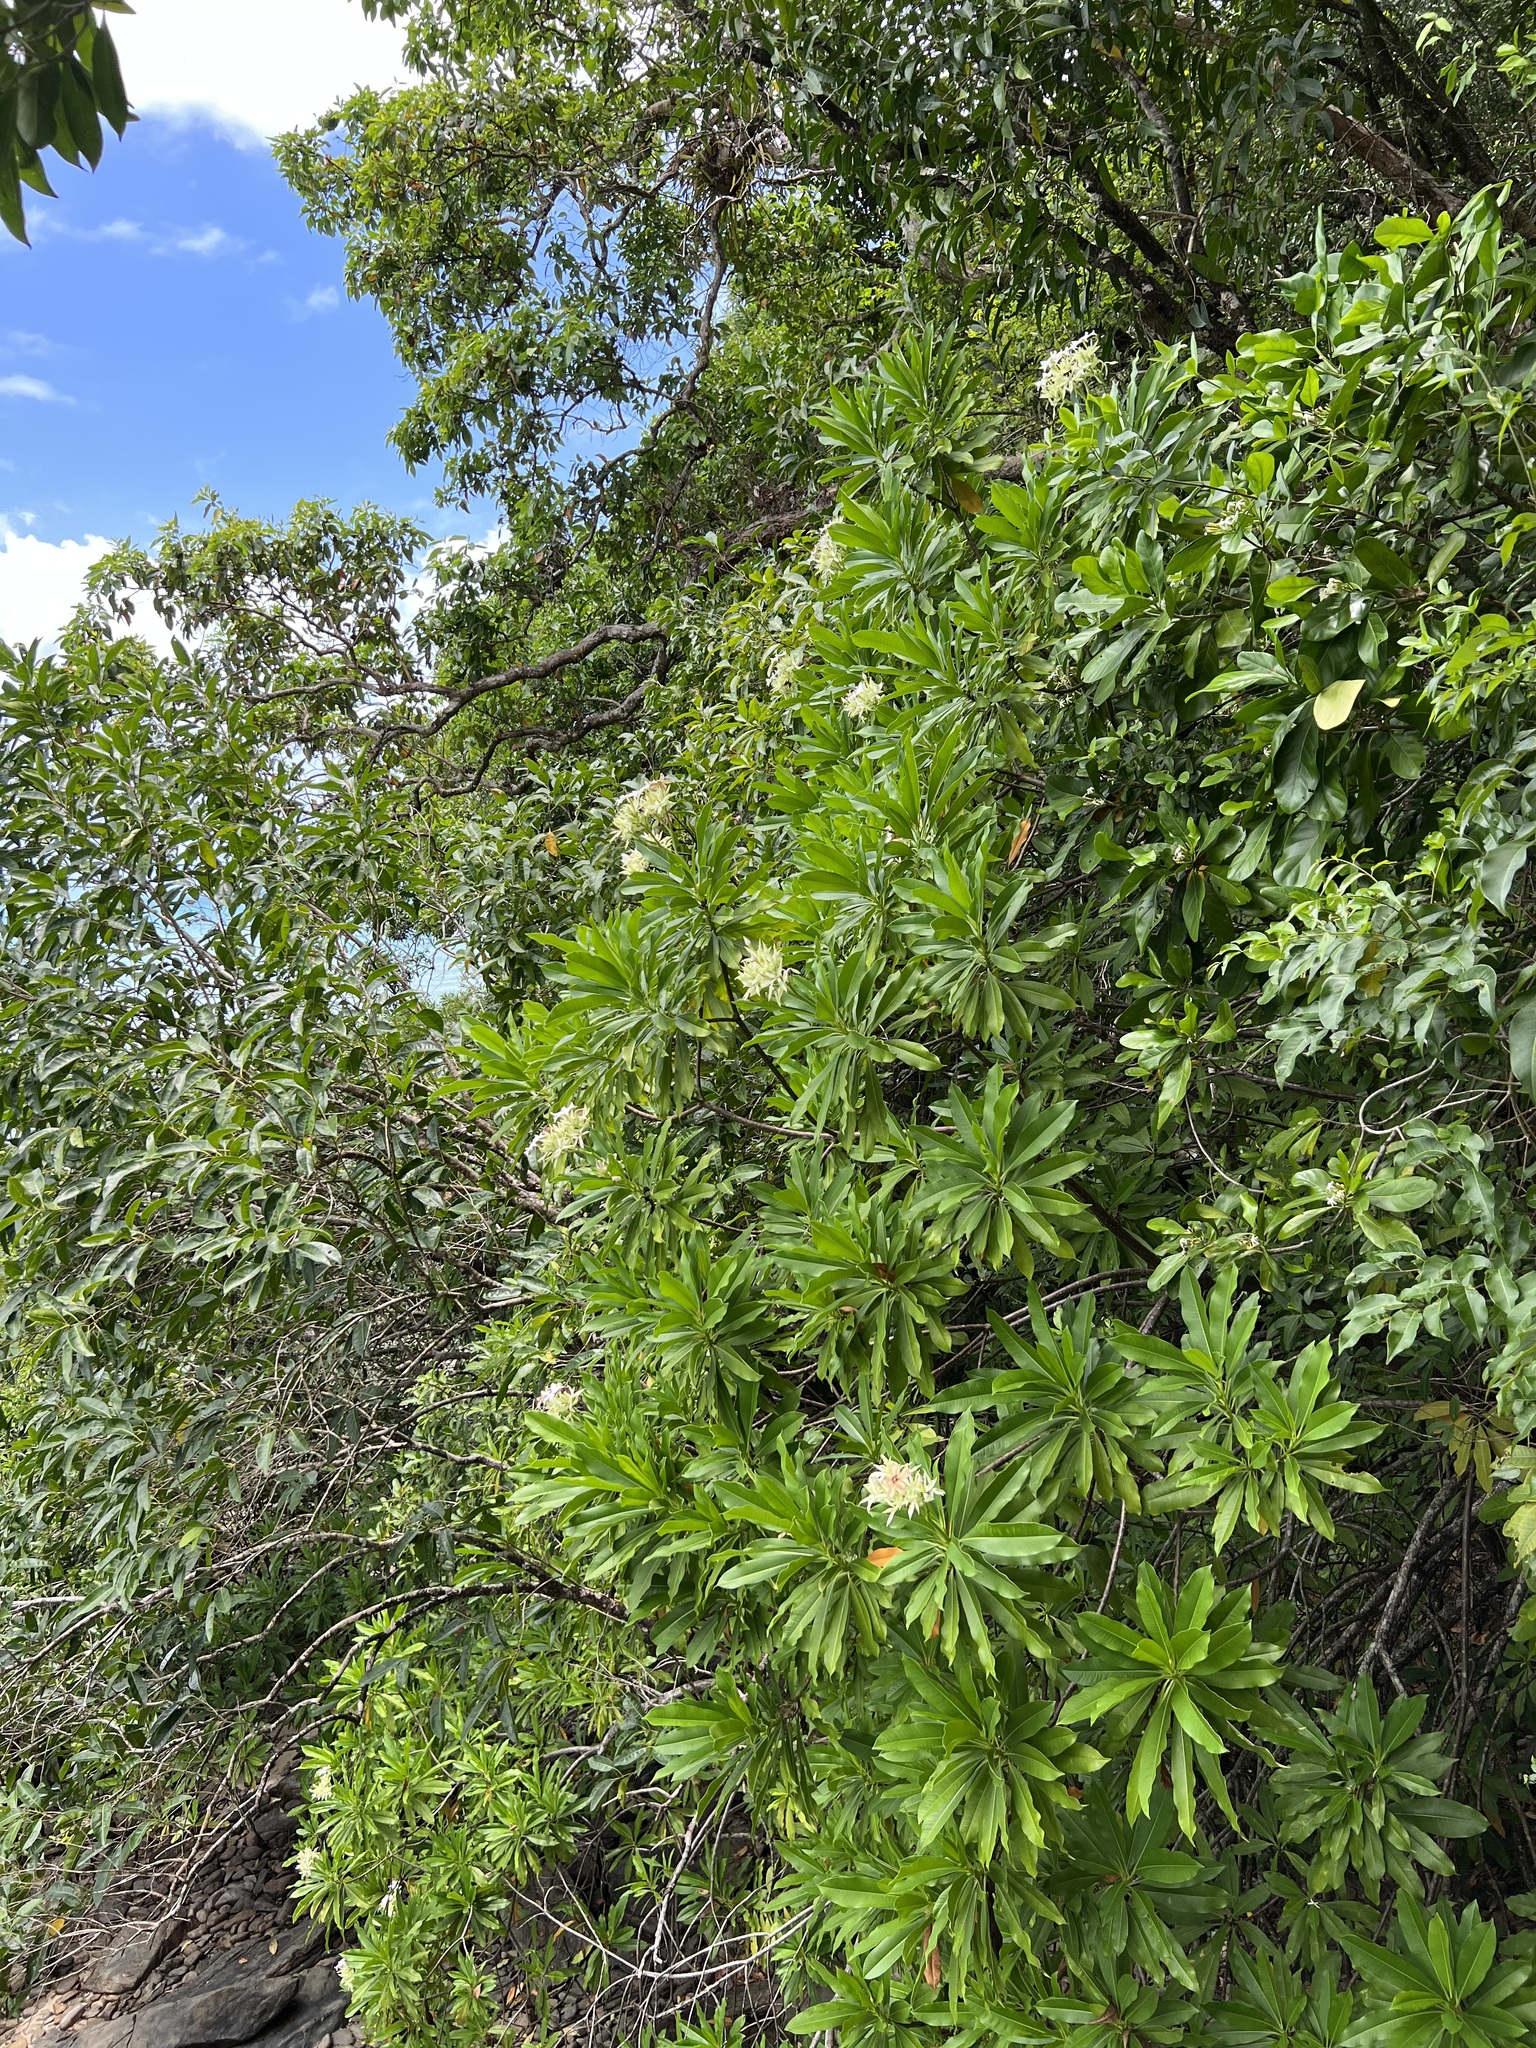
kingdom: Plantae
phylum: Tracheophyta
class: Magnoliopsida
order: Gentianales
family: Apocynaceae
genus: Cerbera
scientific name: Cerbera manghas
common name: Reva
